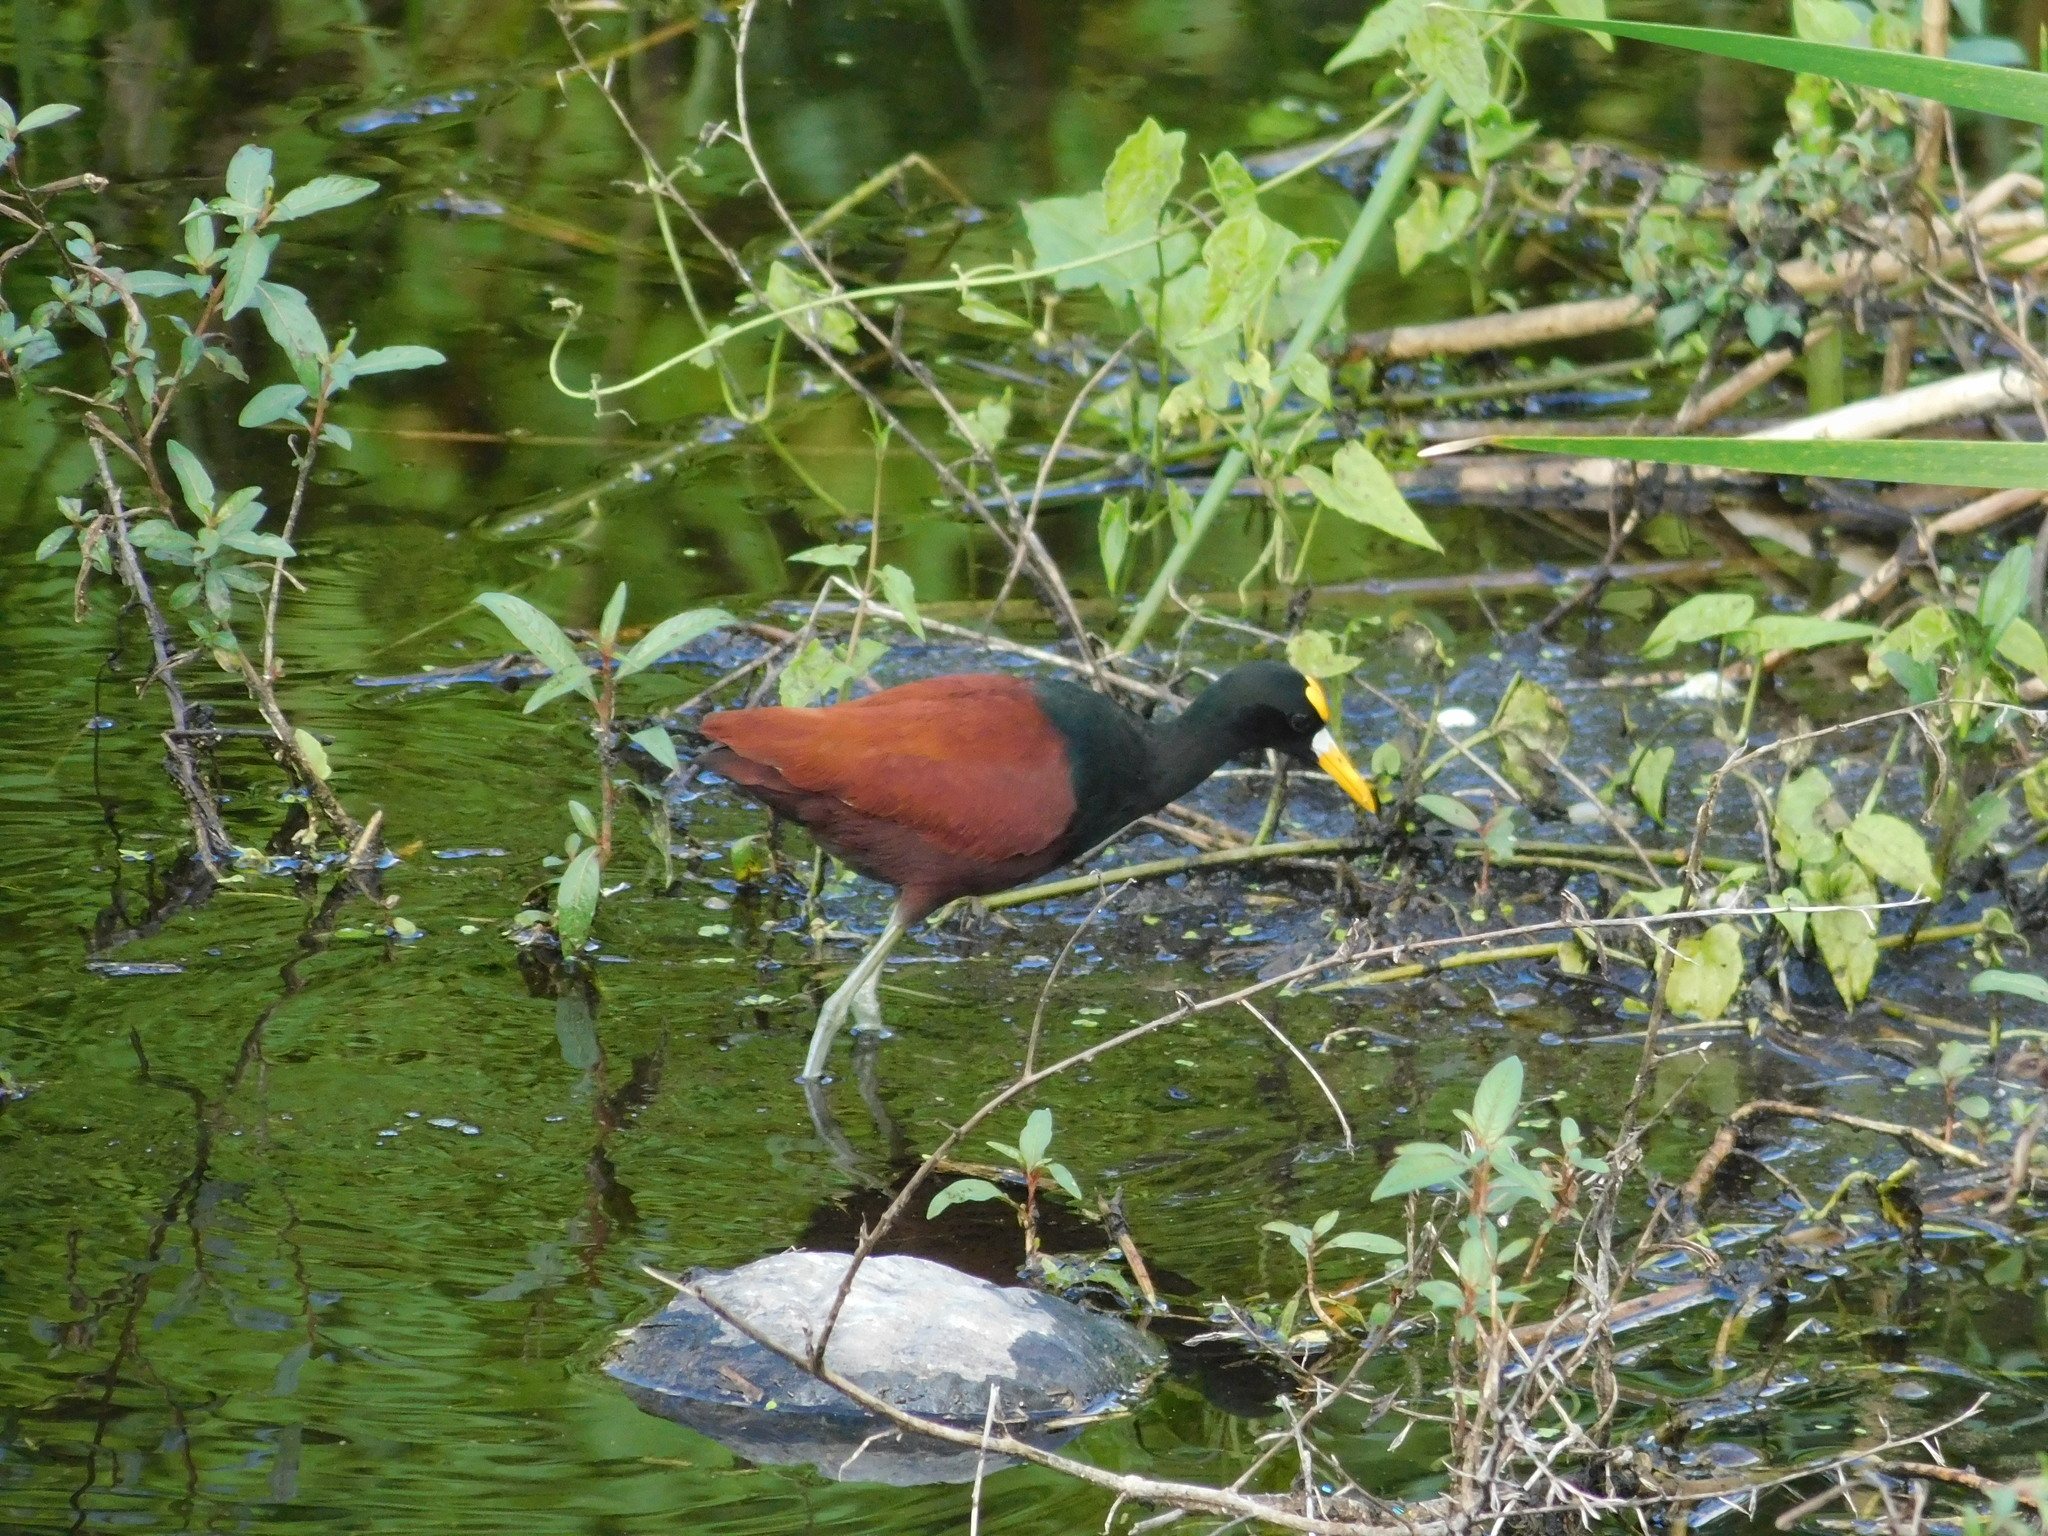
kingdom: Animalia
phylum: Chordata
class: Aves
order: Charadriiformes
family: Jacanidae
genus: Jacana
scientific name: Jacana spinosa
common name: Northern jacana
